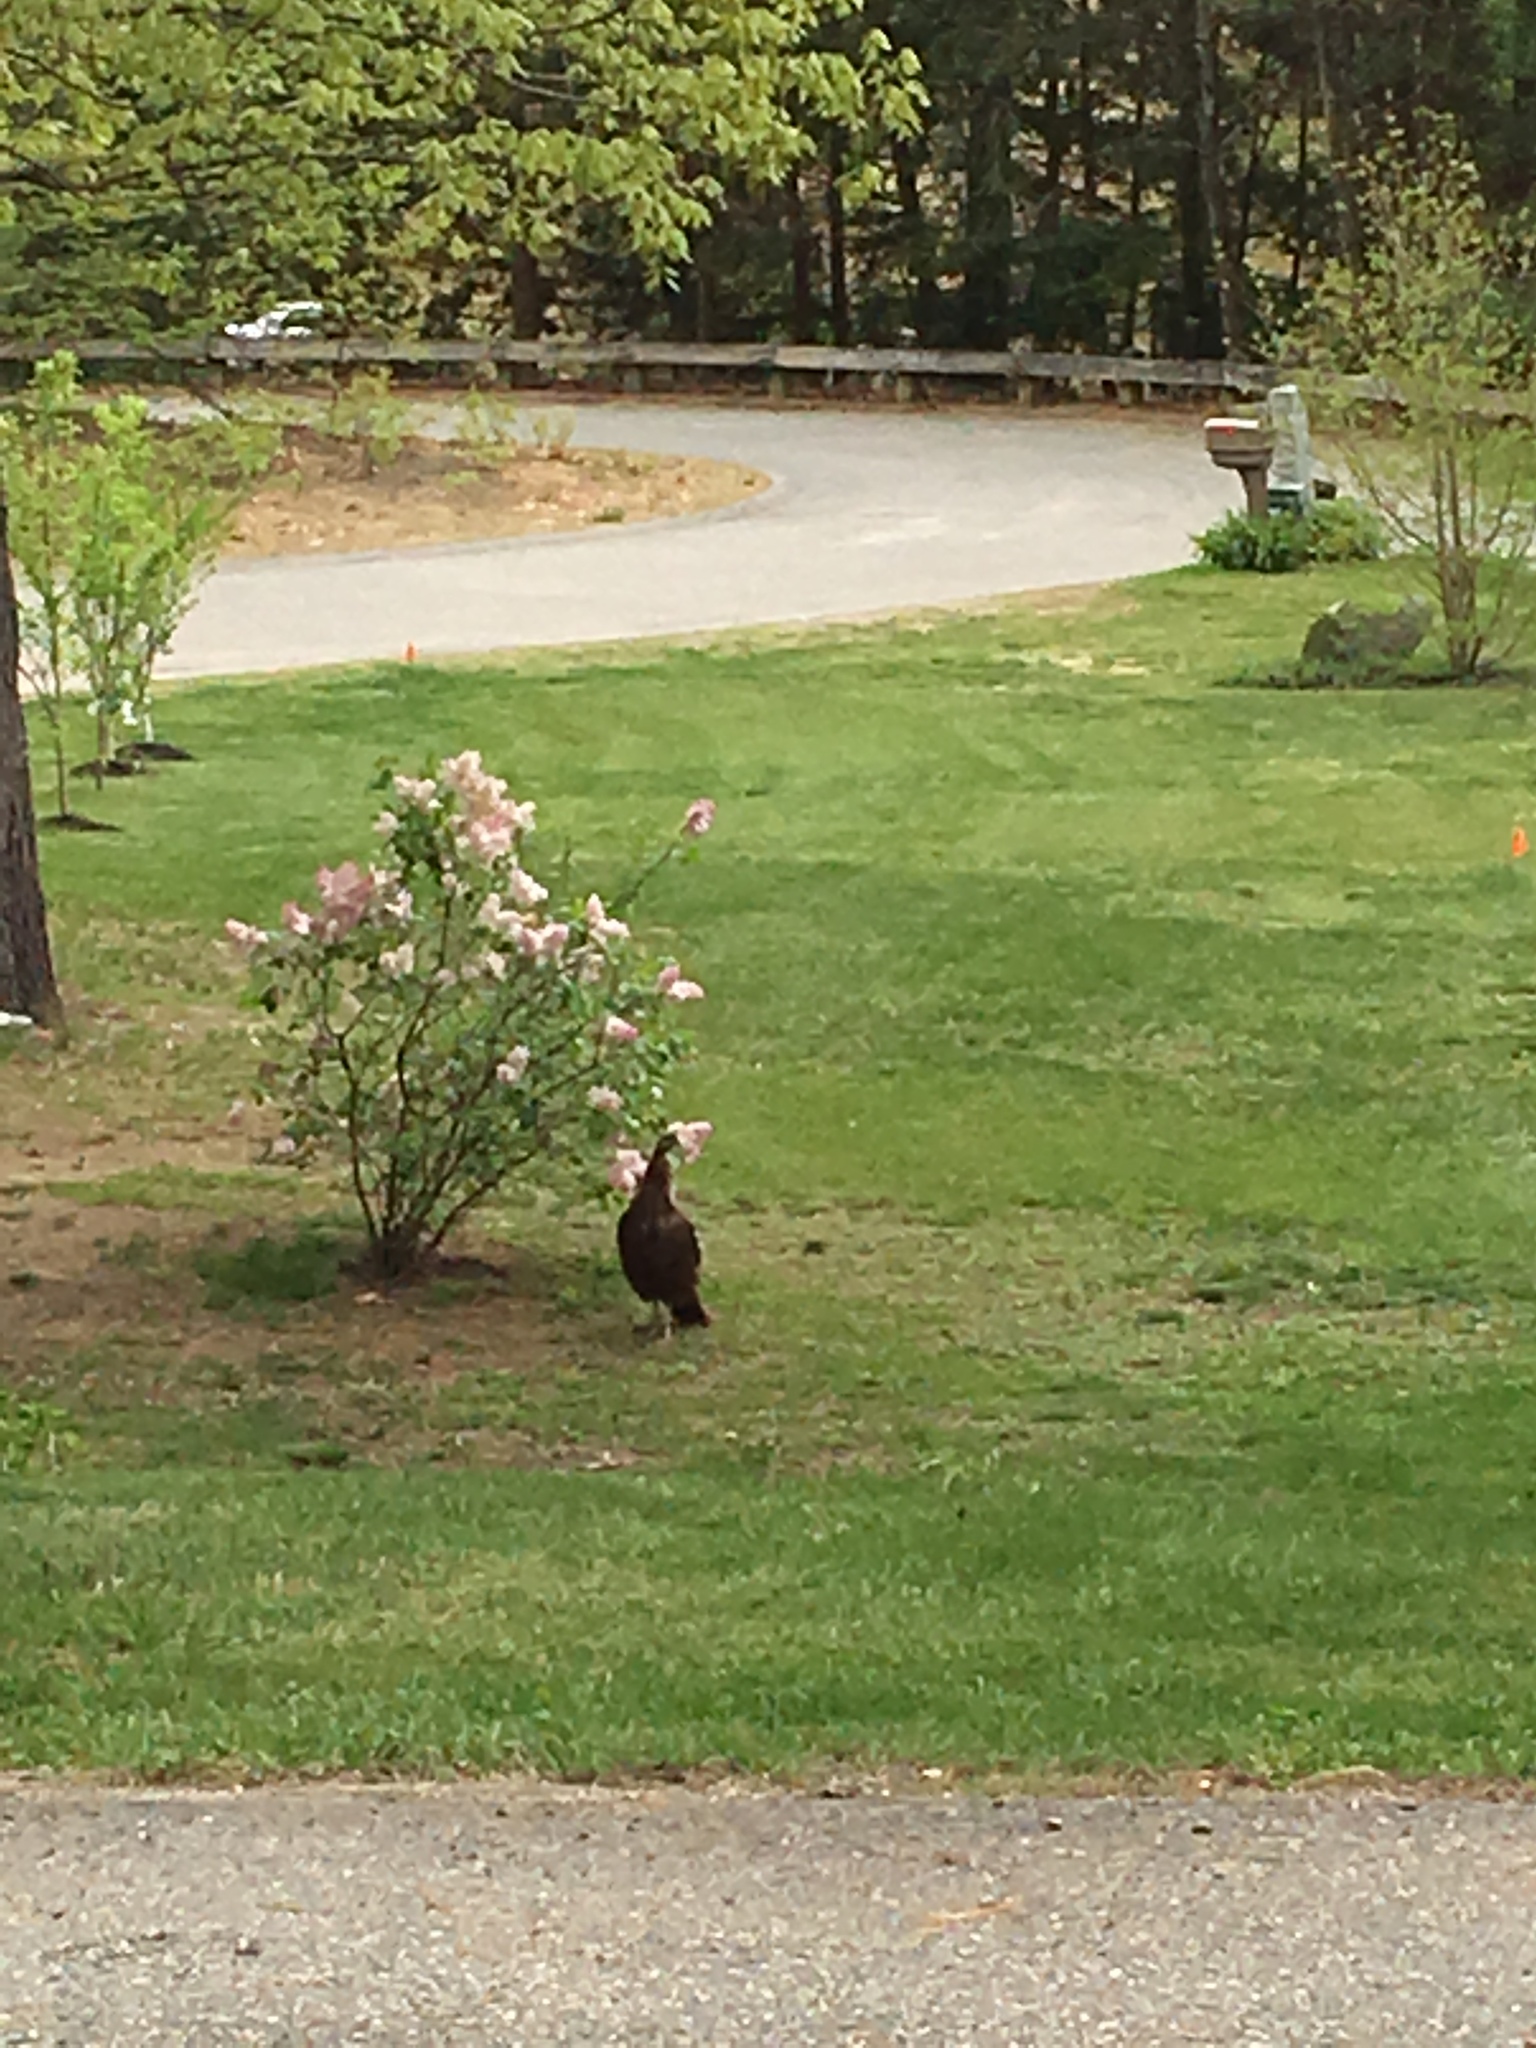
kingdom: Animalia
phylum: Chordata
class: Aves
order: Galliformes
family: Phasianidae
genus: Meleagris
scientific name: Meleagris gallopavo
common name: Wild turkey
